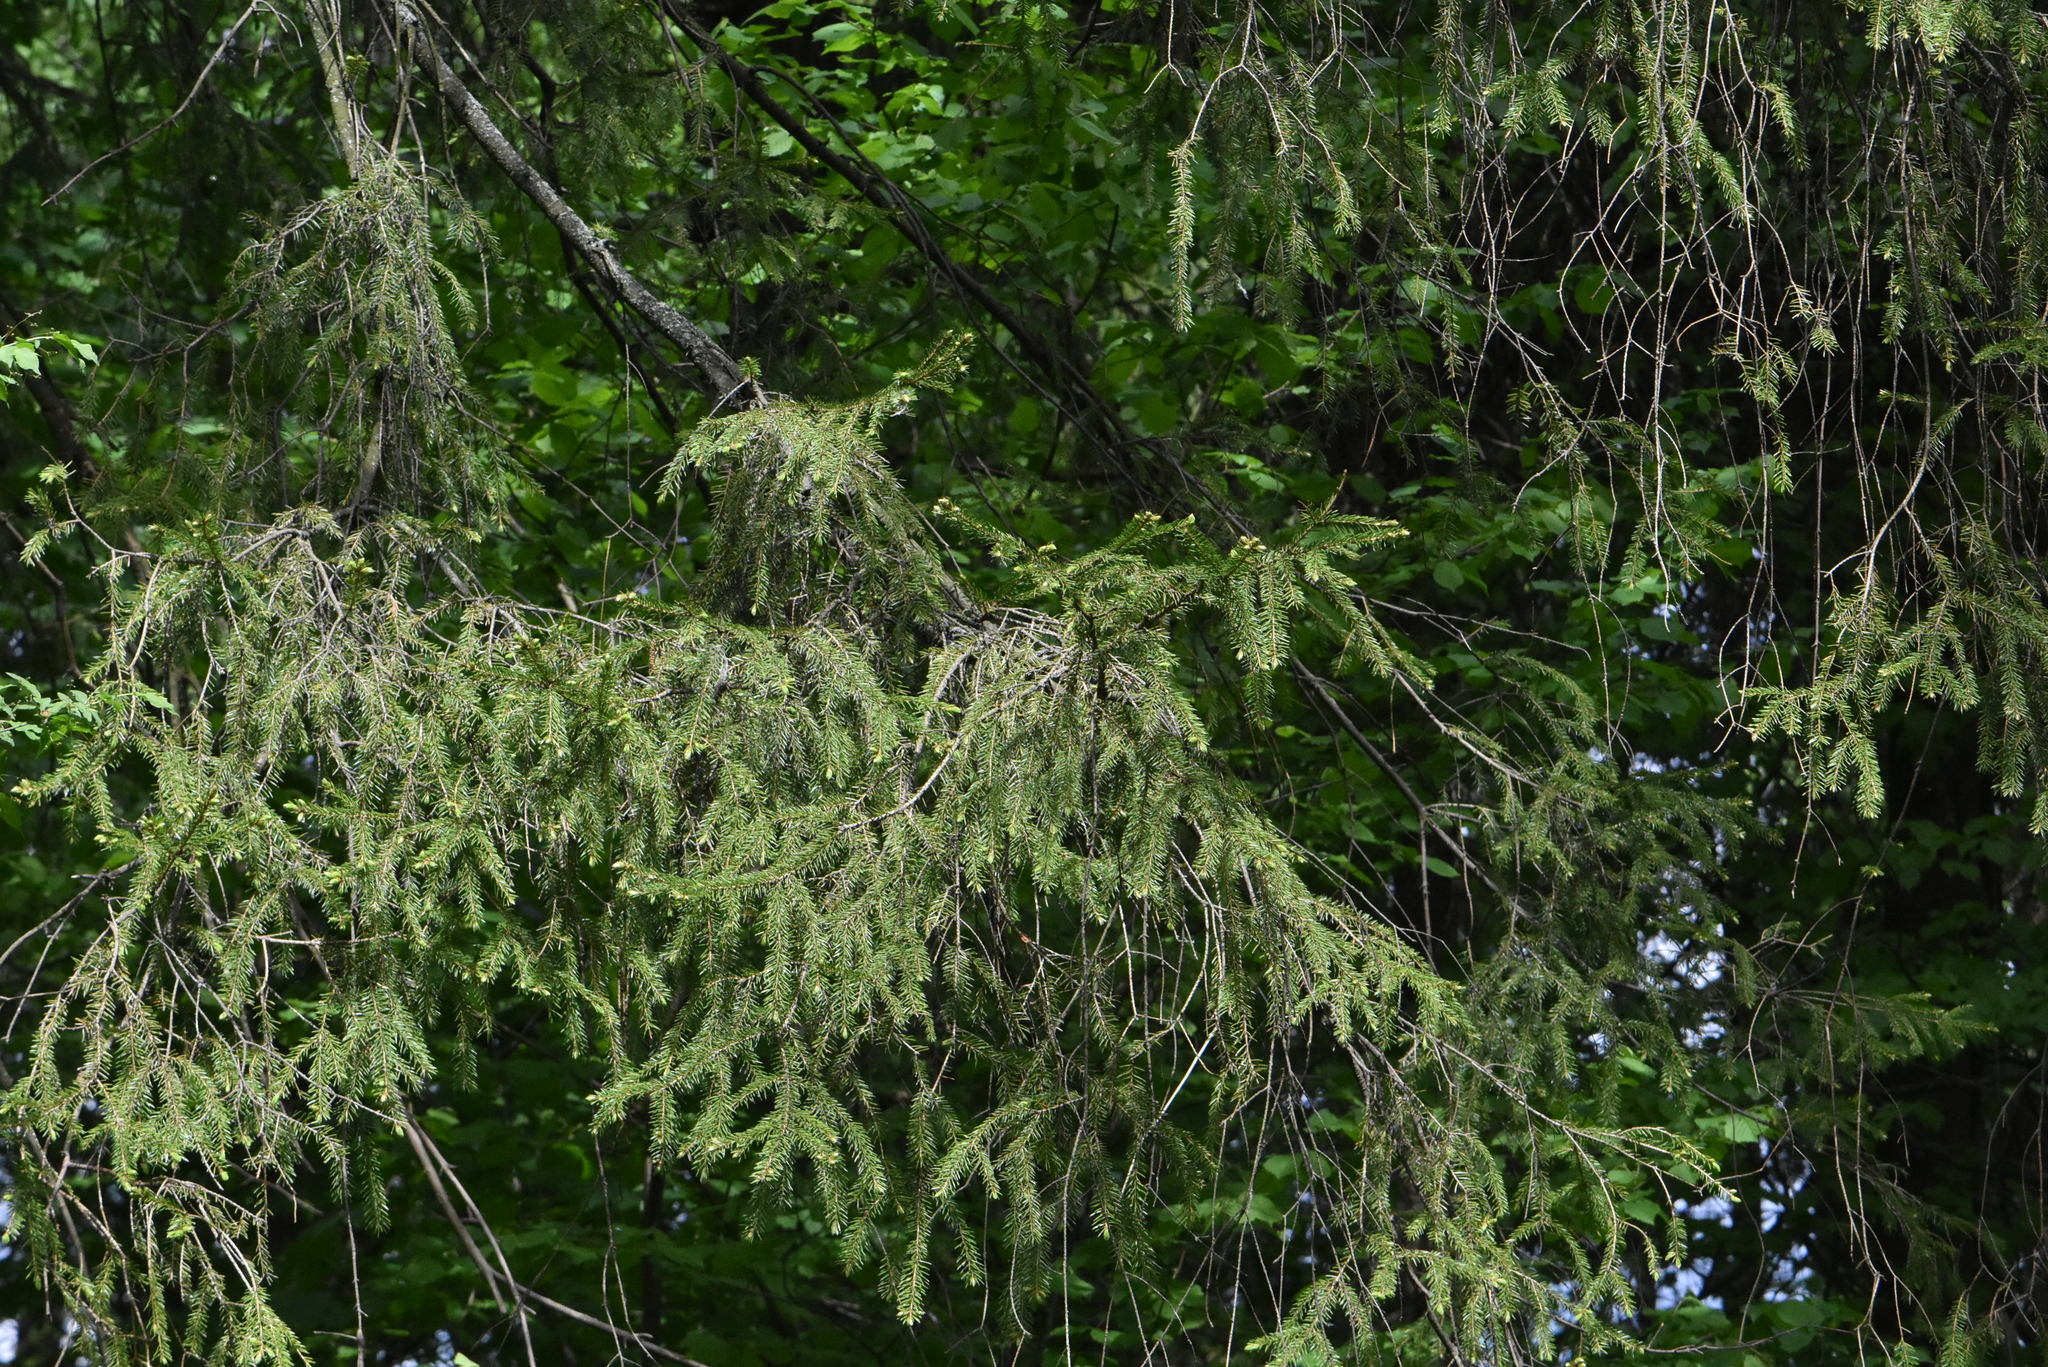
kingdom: Plantae
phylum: Tracheophyta
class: Pinopsida
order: Pinales
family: Pinaceae
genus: Picea
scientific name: Picea abies
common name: Norway spruce
